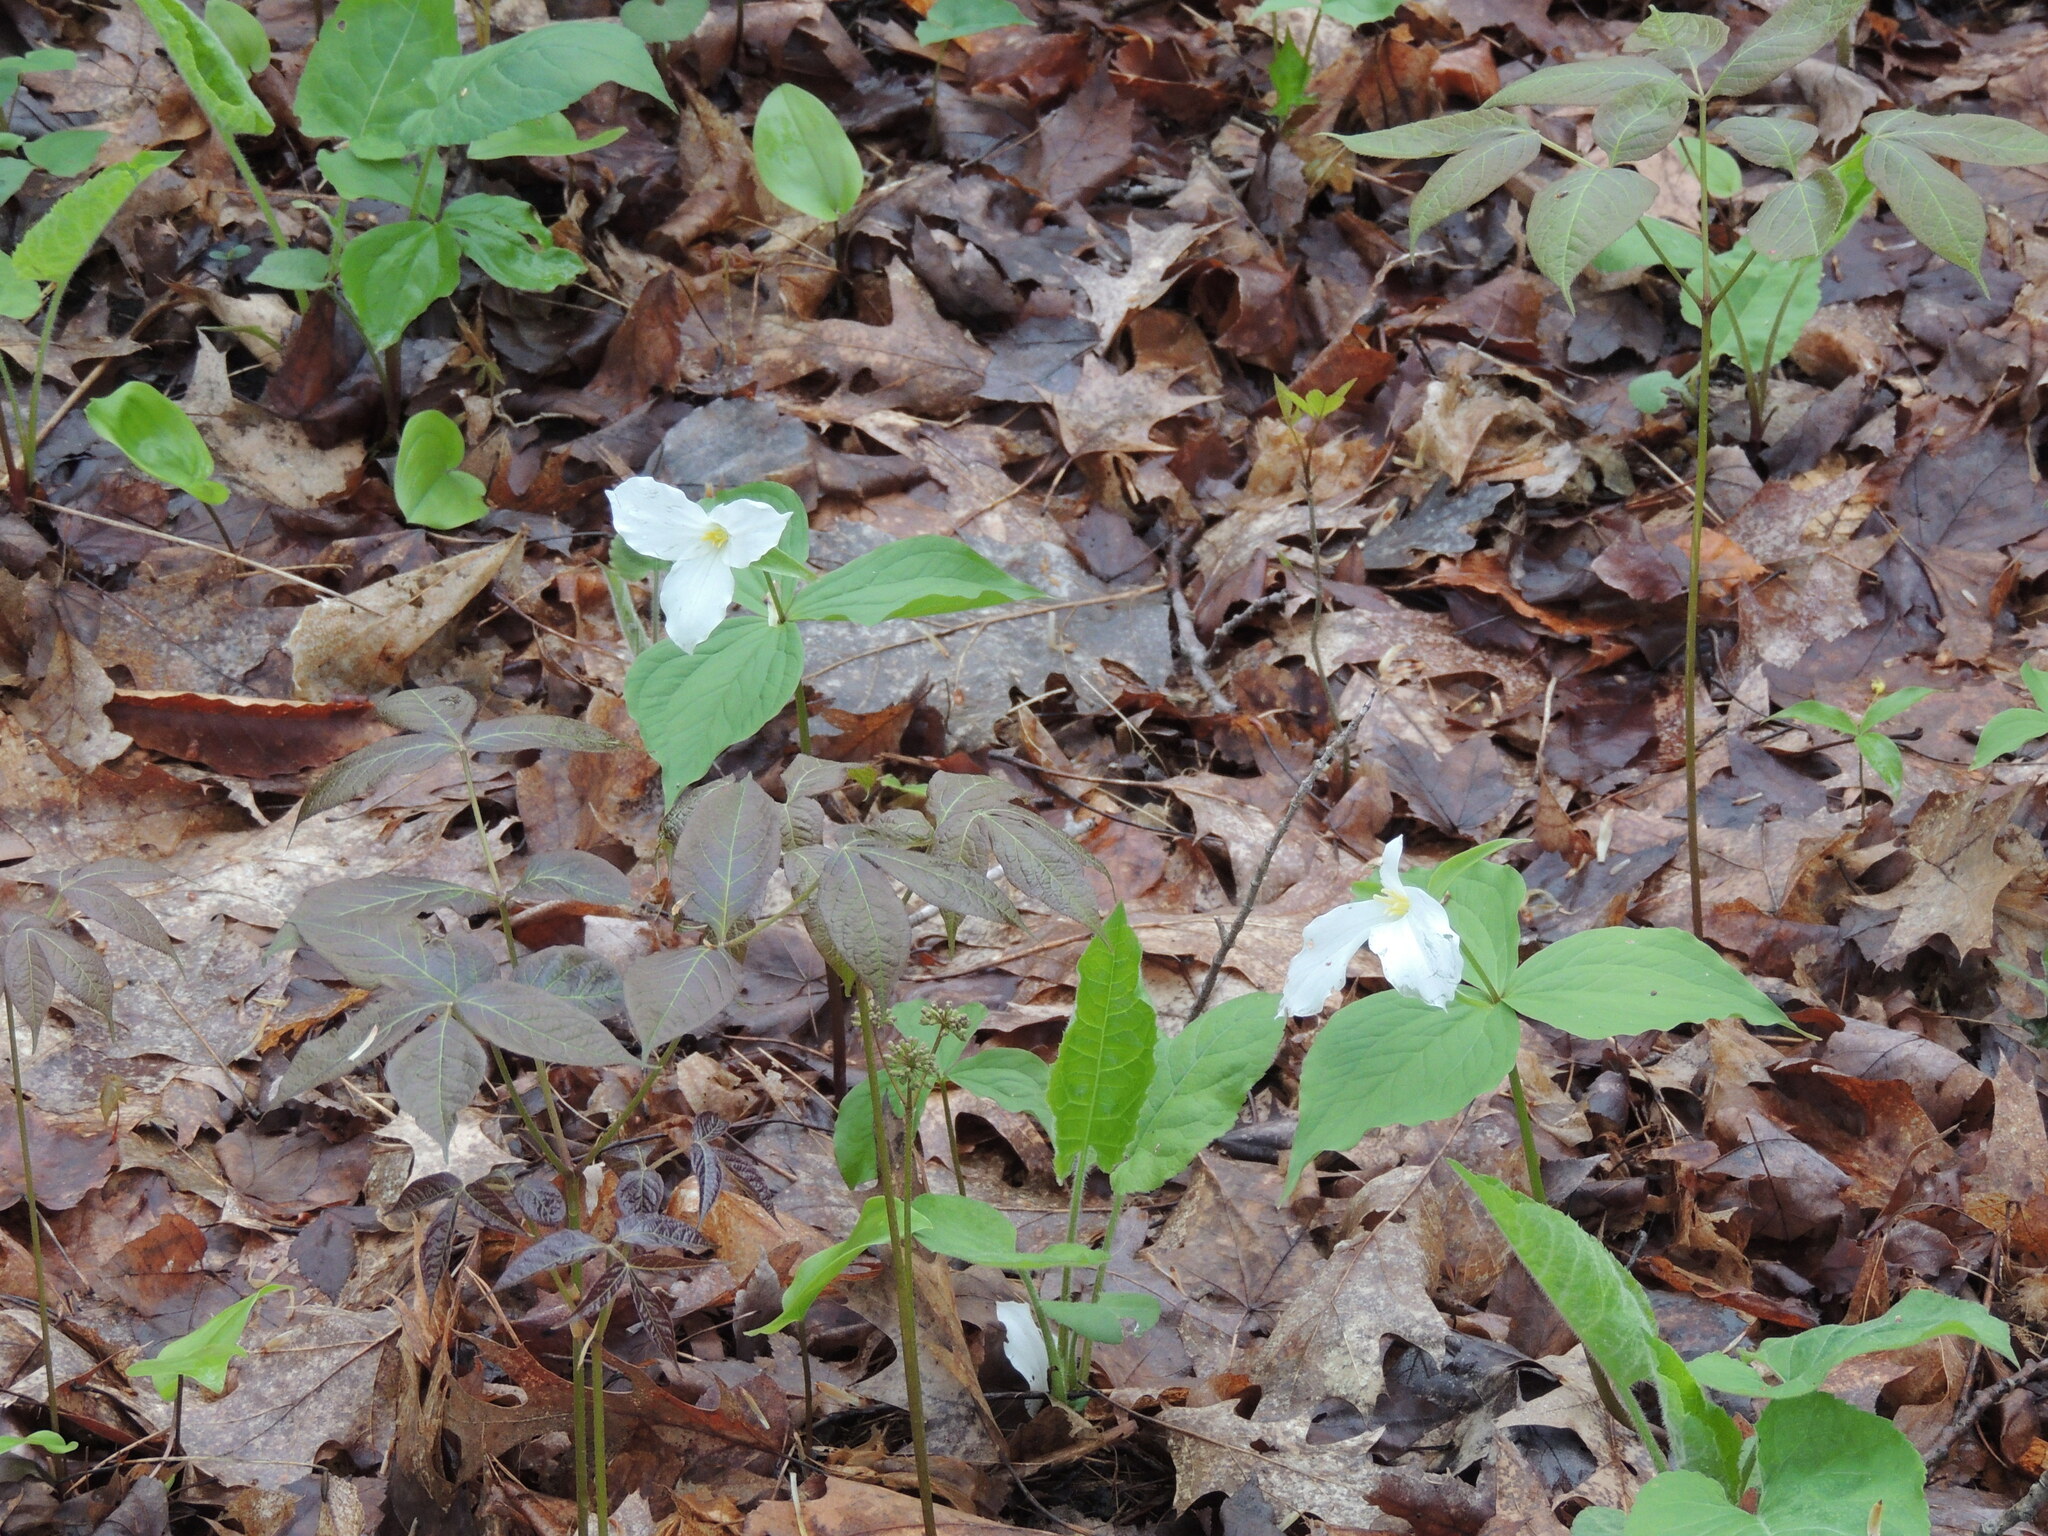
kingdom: Plantae
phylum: Tracheophyta
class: Liliopsida
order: Liliales
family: Melanthiaceae
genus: Trillium
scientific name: Trillium grandiflorum
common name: Great white trillium
